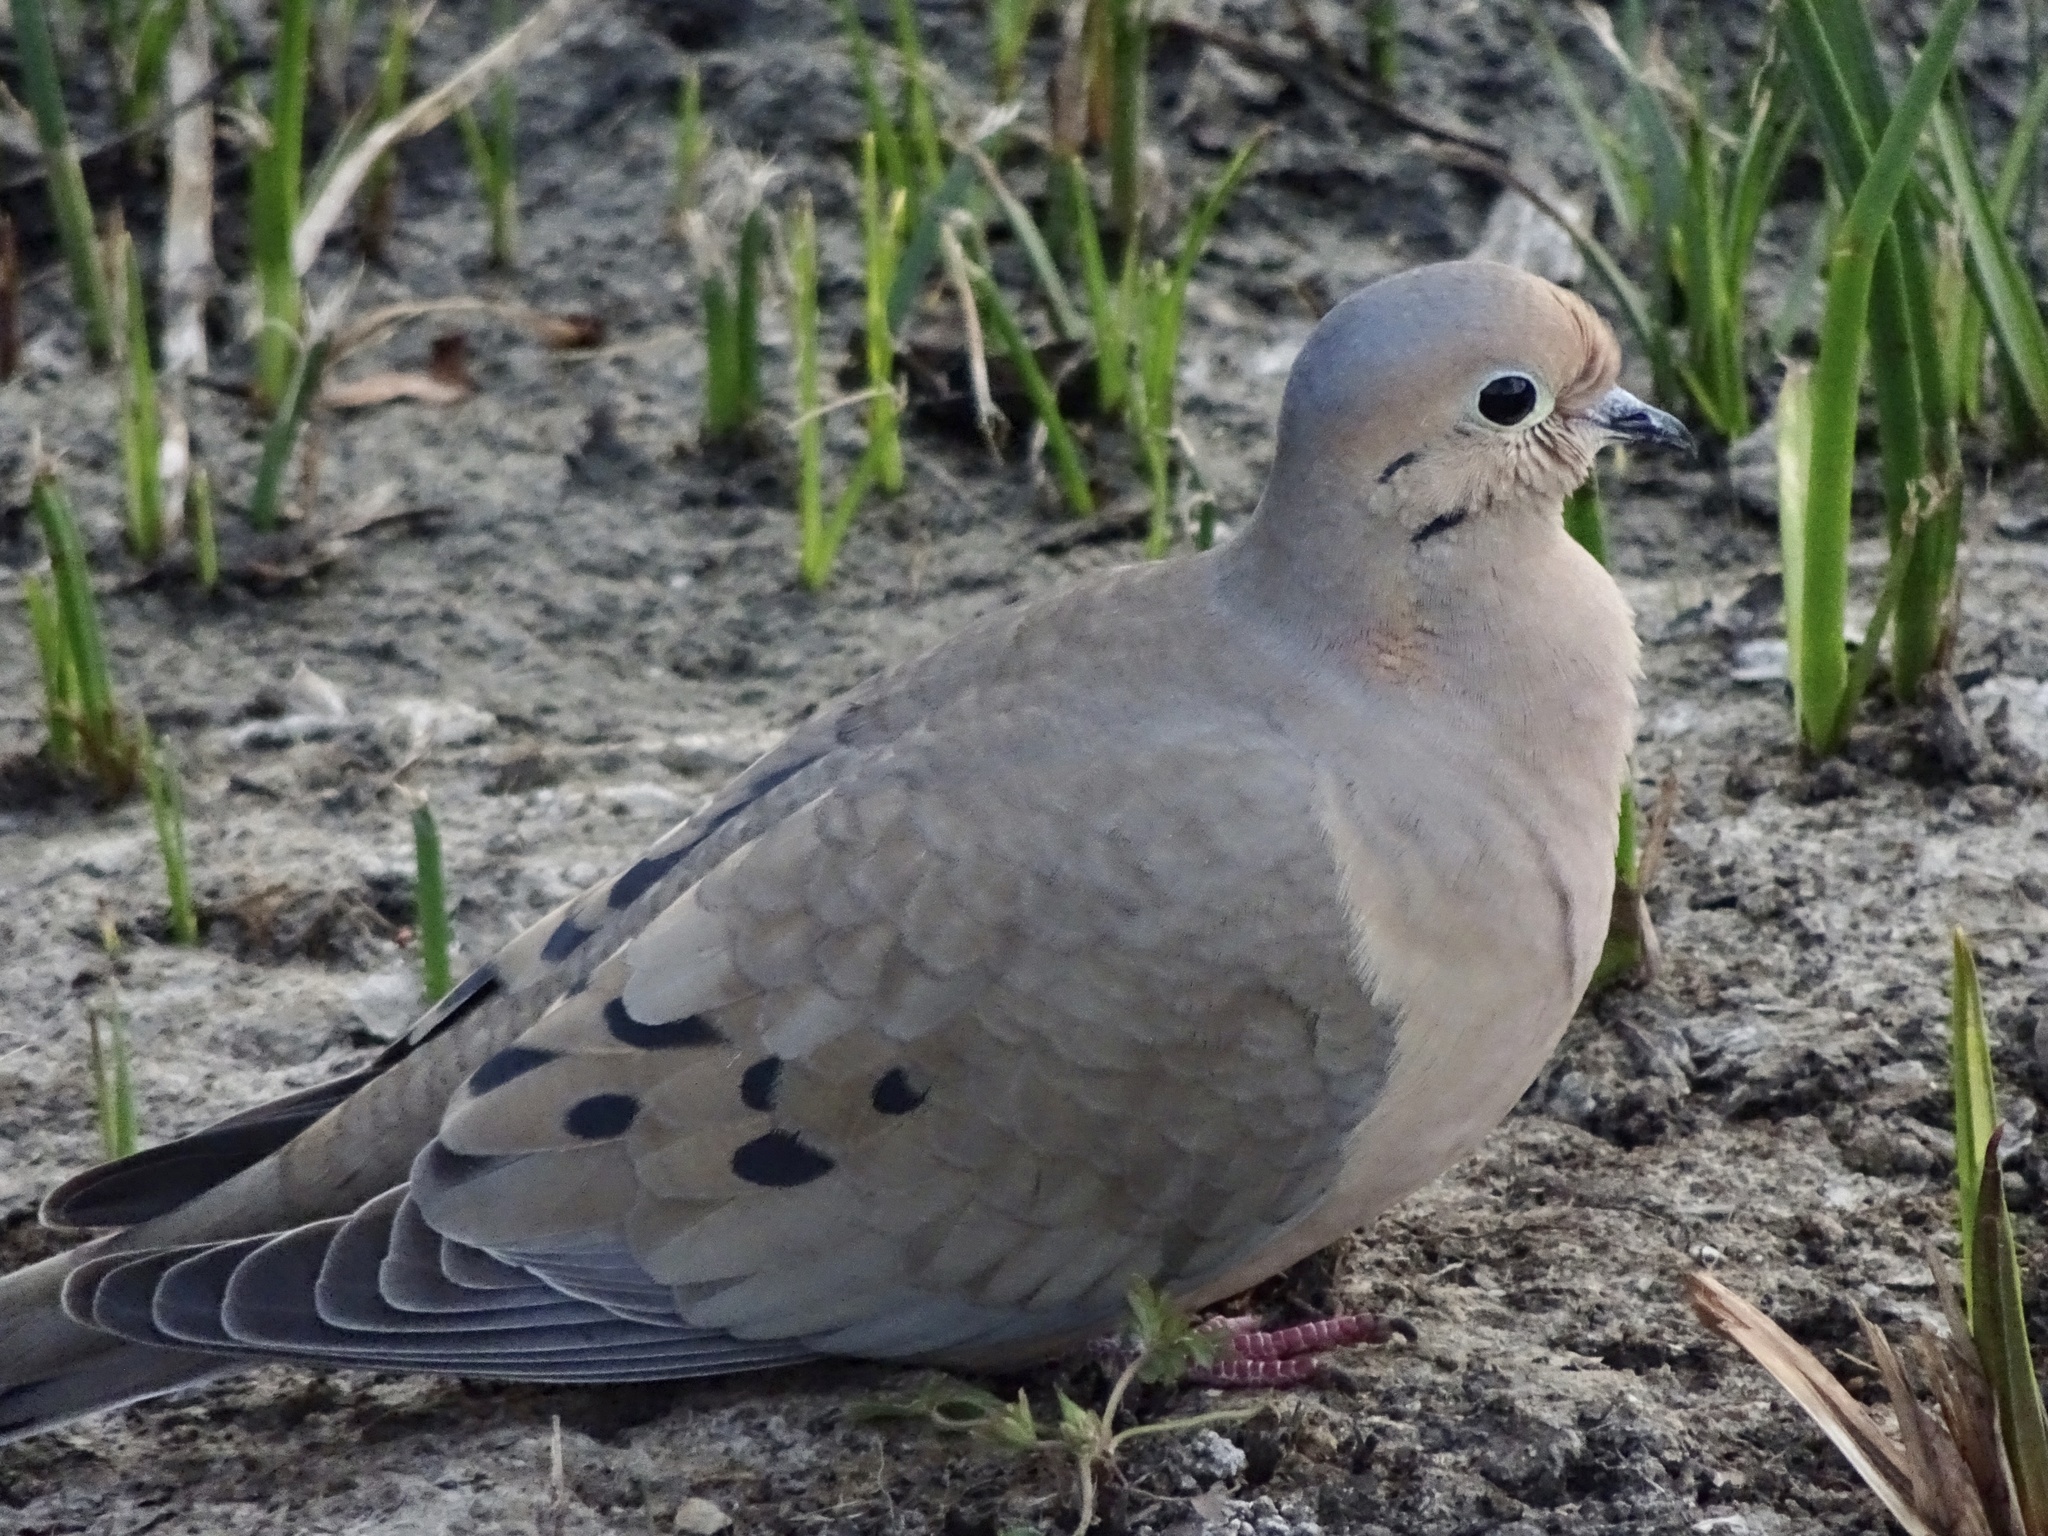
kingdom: Animalia
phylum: Chordata
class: Aves
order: Columbiformes
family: Columbidae
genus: Zenaida
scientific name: Zenaida macroura
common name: Mourning dove
